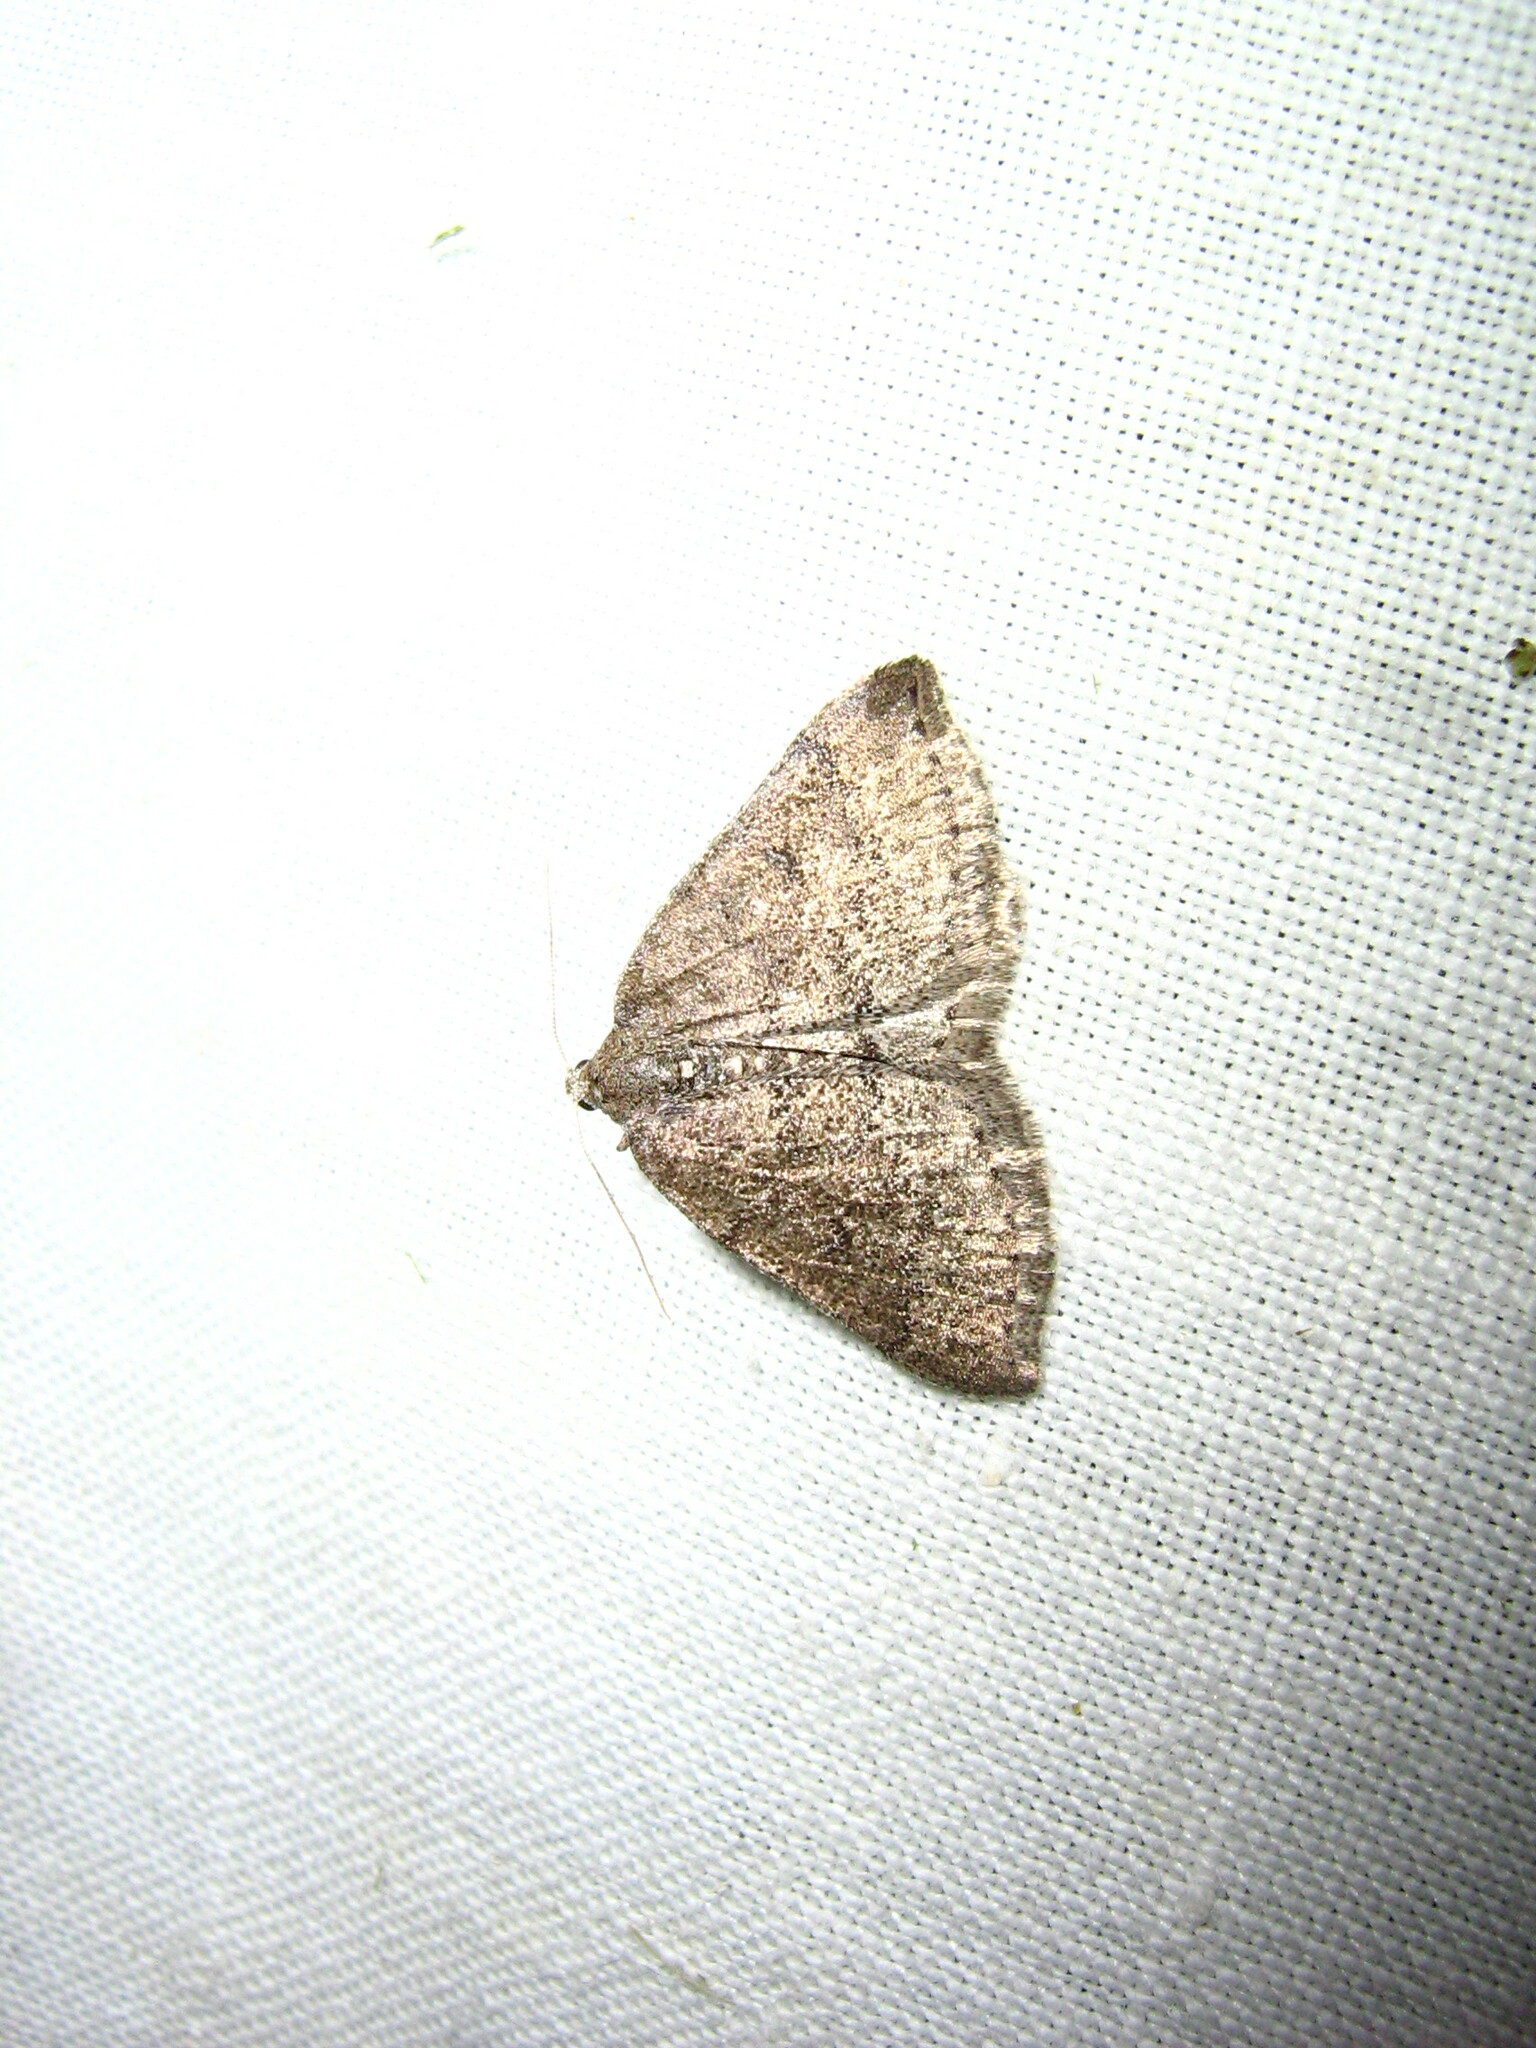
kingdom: Animalia
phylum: Arthropoda
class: Insecta
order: Lepidoptera
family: Geometridae
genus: Aleucis
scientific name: Aleucis distinctata
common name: Sloe carpet
